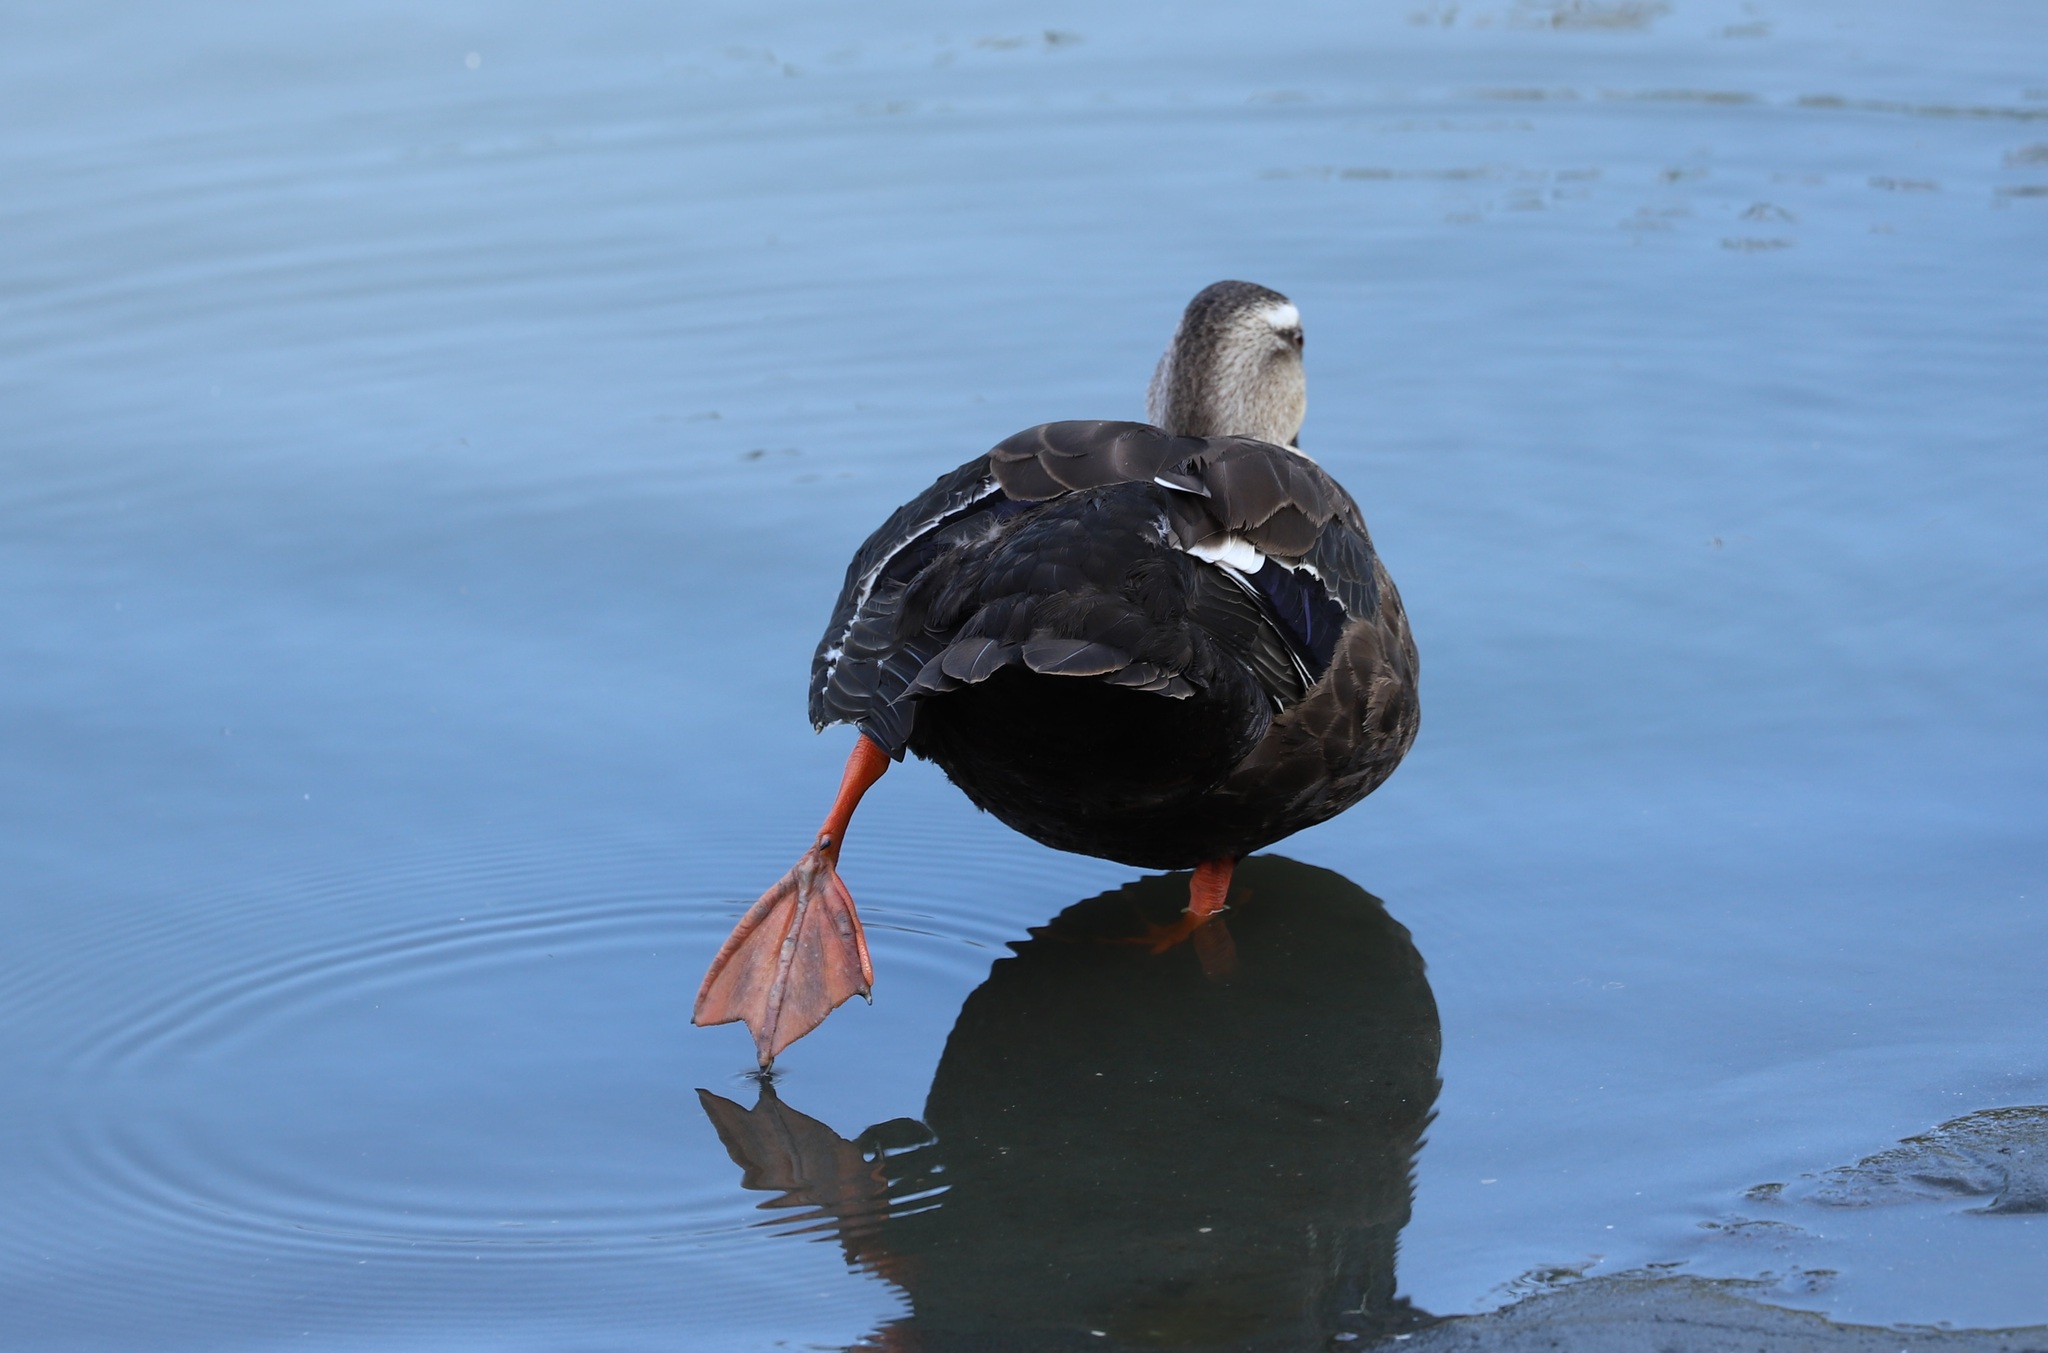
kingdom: Animalia
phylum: Chordata
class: Aves
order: Anseriformes
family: Anatidae
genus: Anas
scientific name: Anas zonorhyncha
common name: Eastern spot-billed duck
